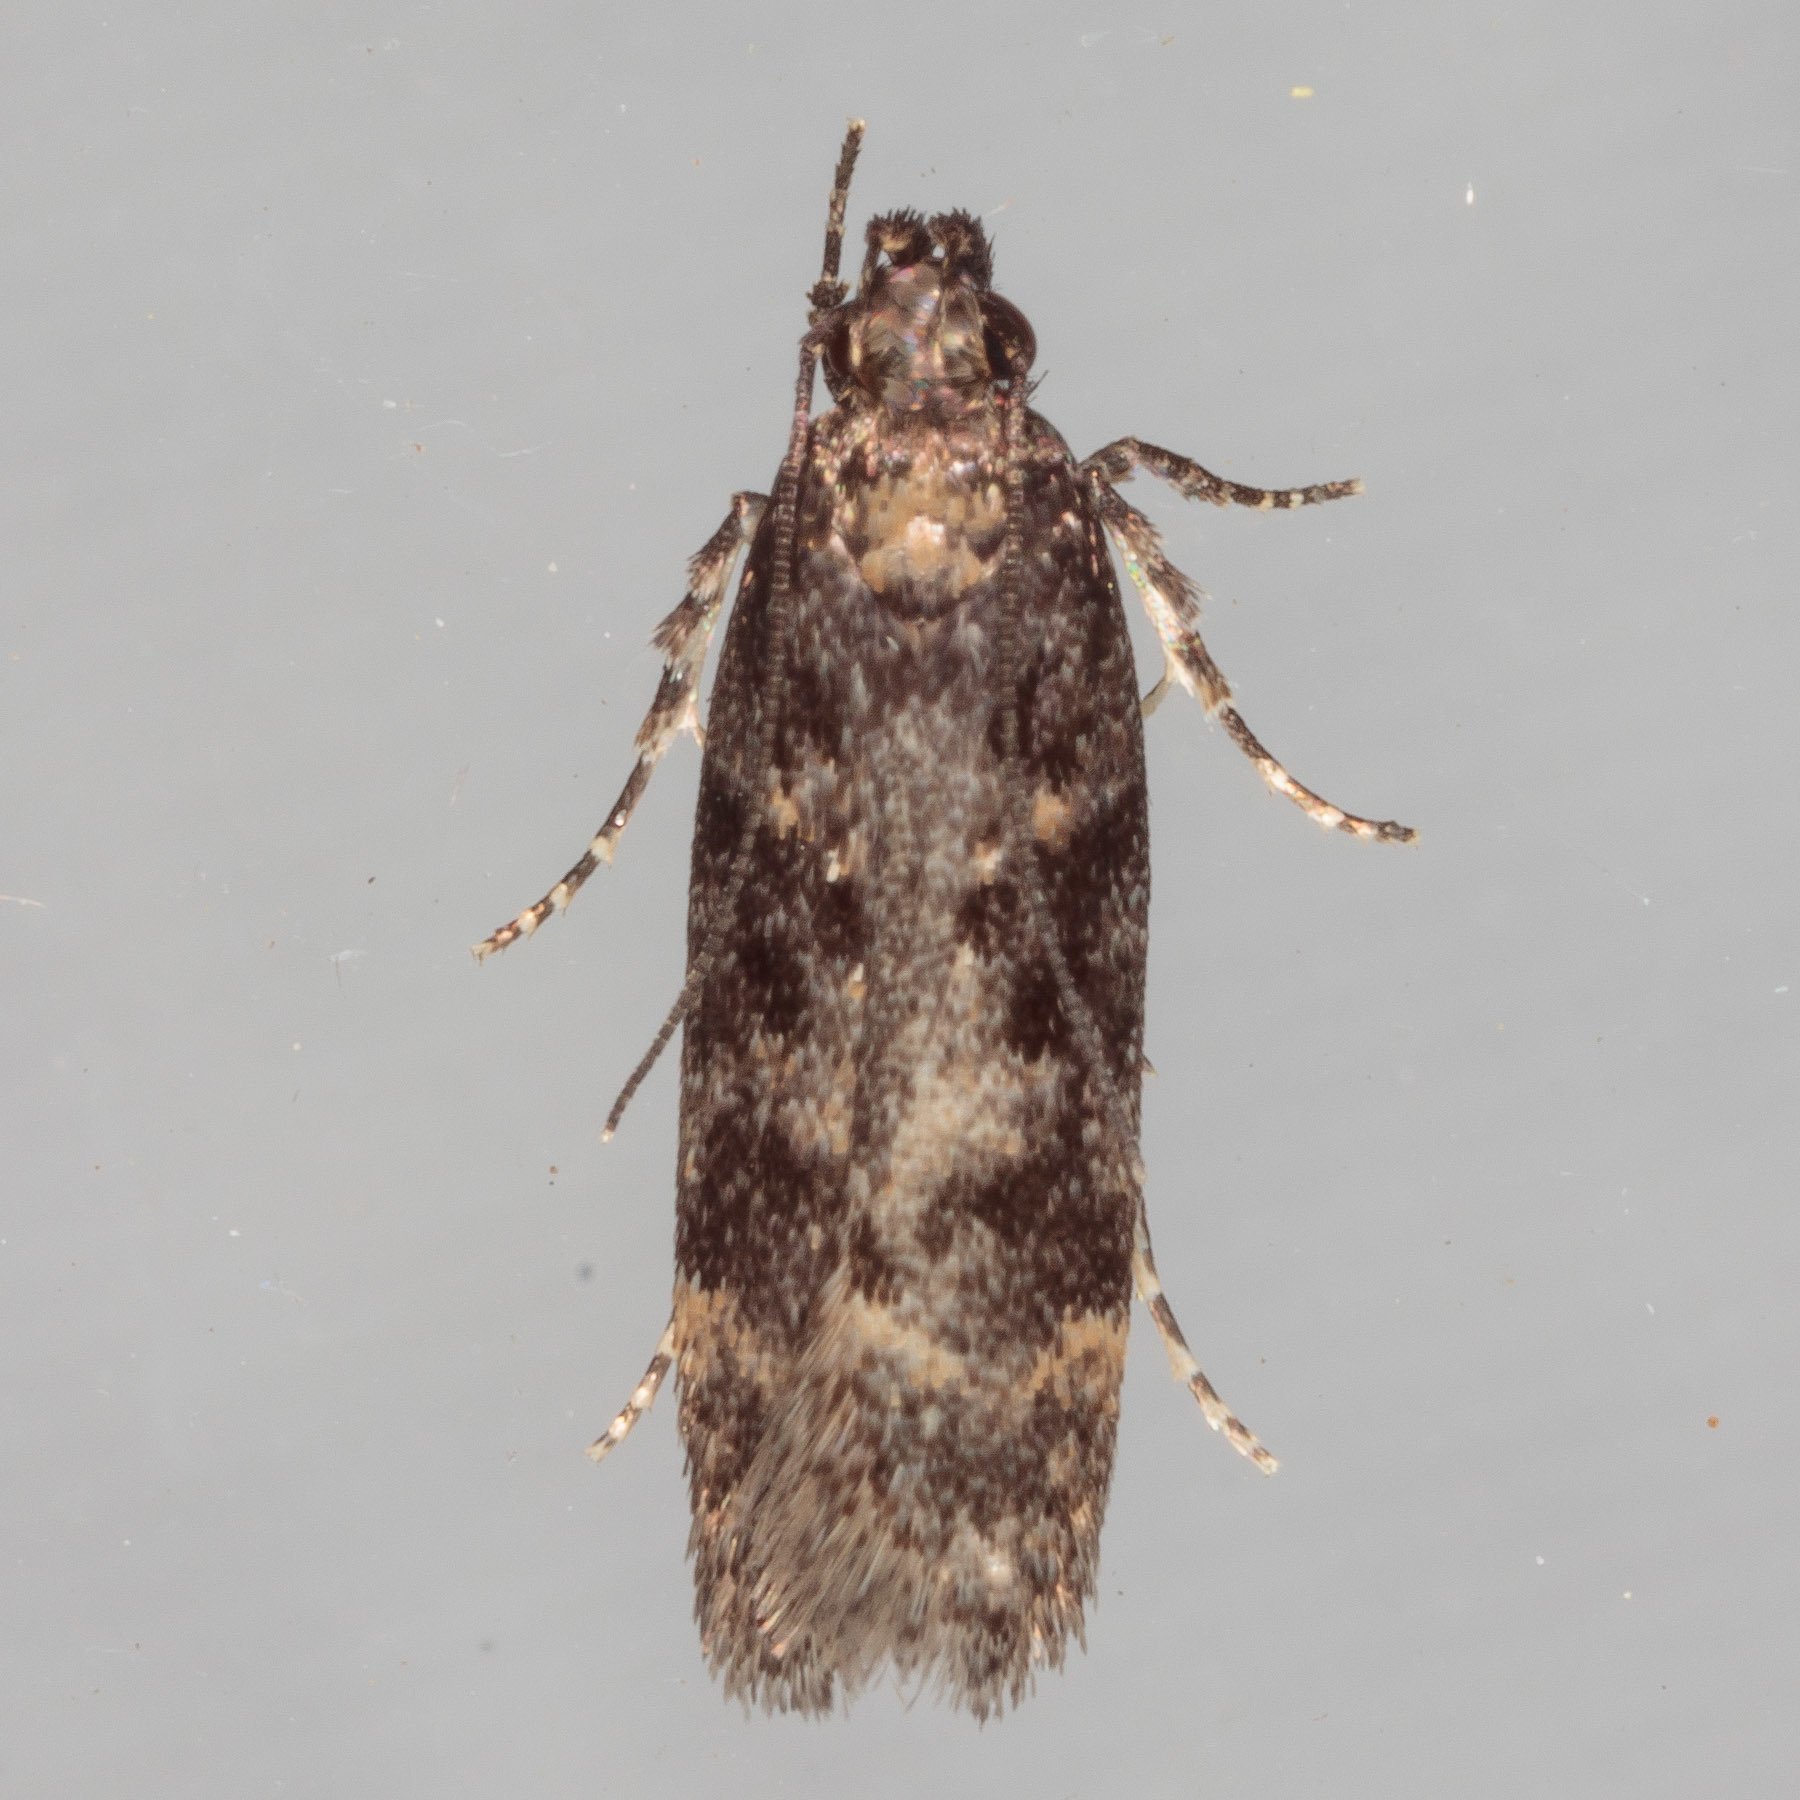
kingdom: Animalia
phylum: Arthropoda
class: Insecta
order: Lepidoptera
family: Gelechiidae
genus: Chionodes
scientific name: Chionodes thoraceochrella
